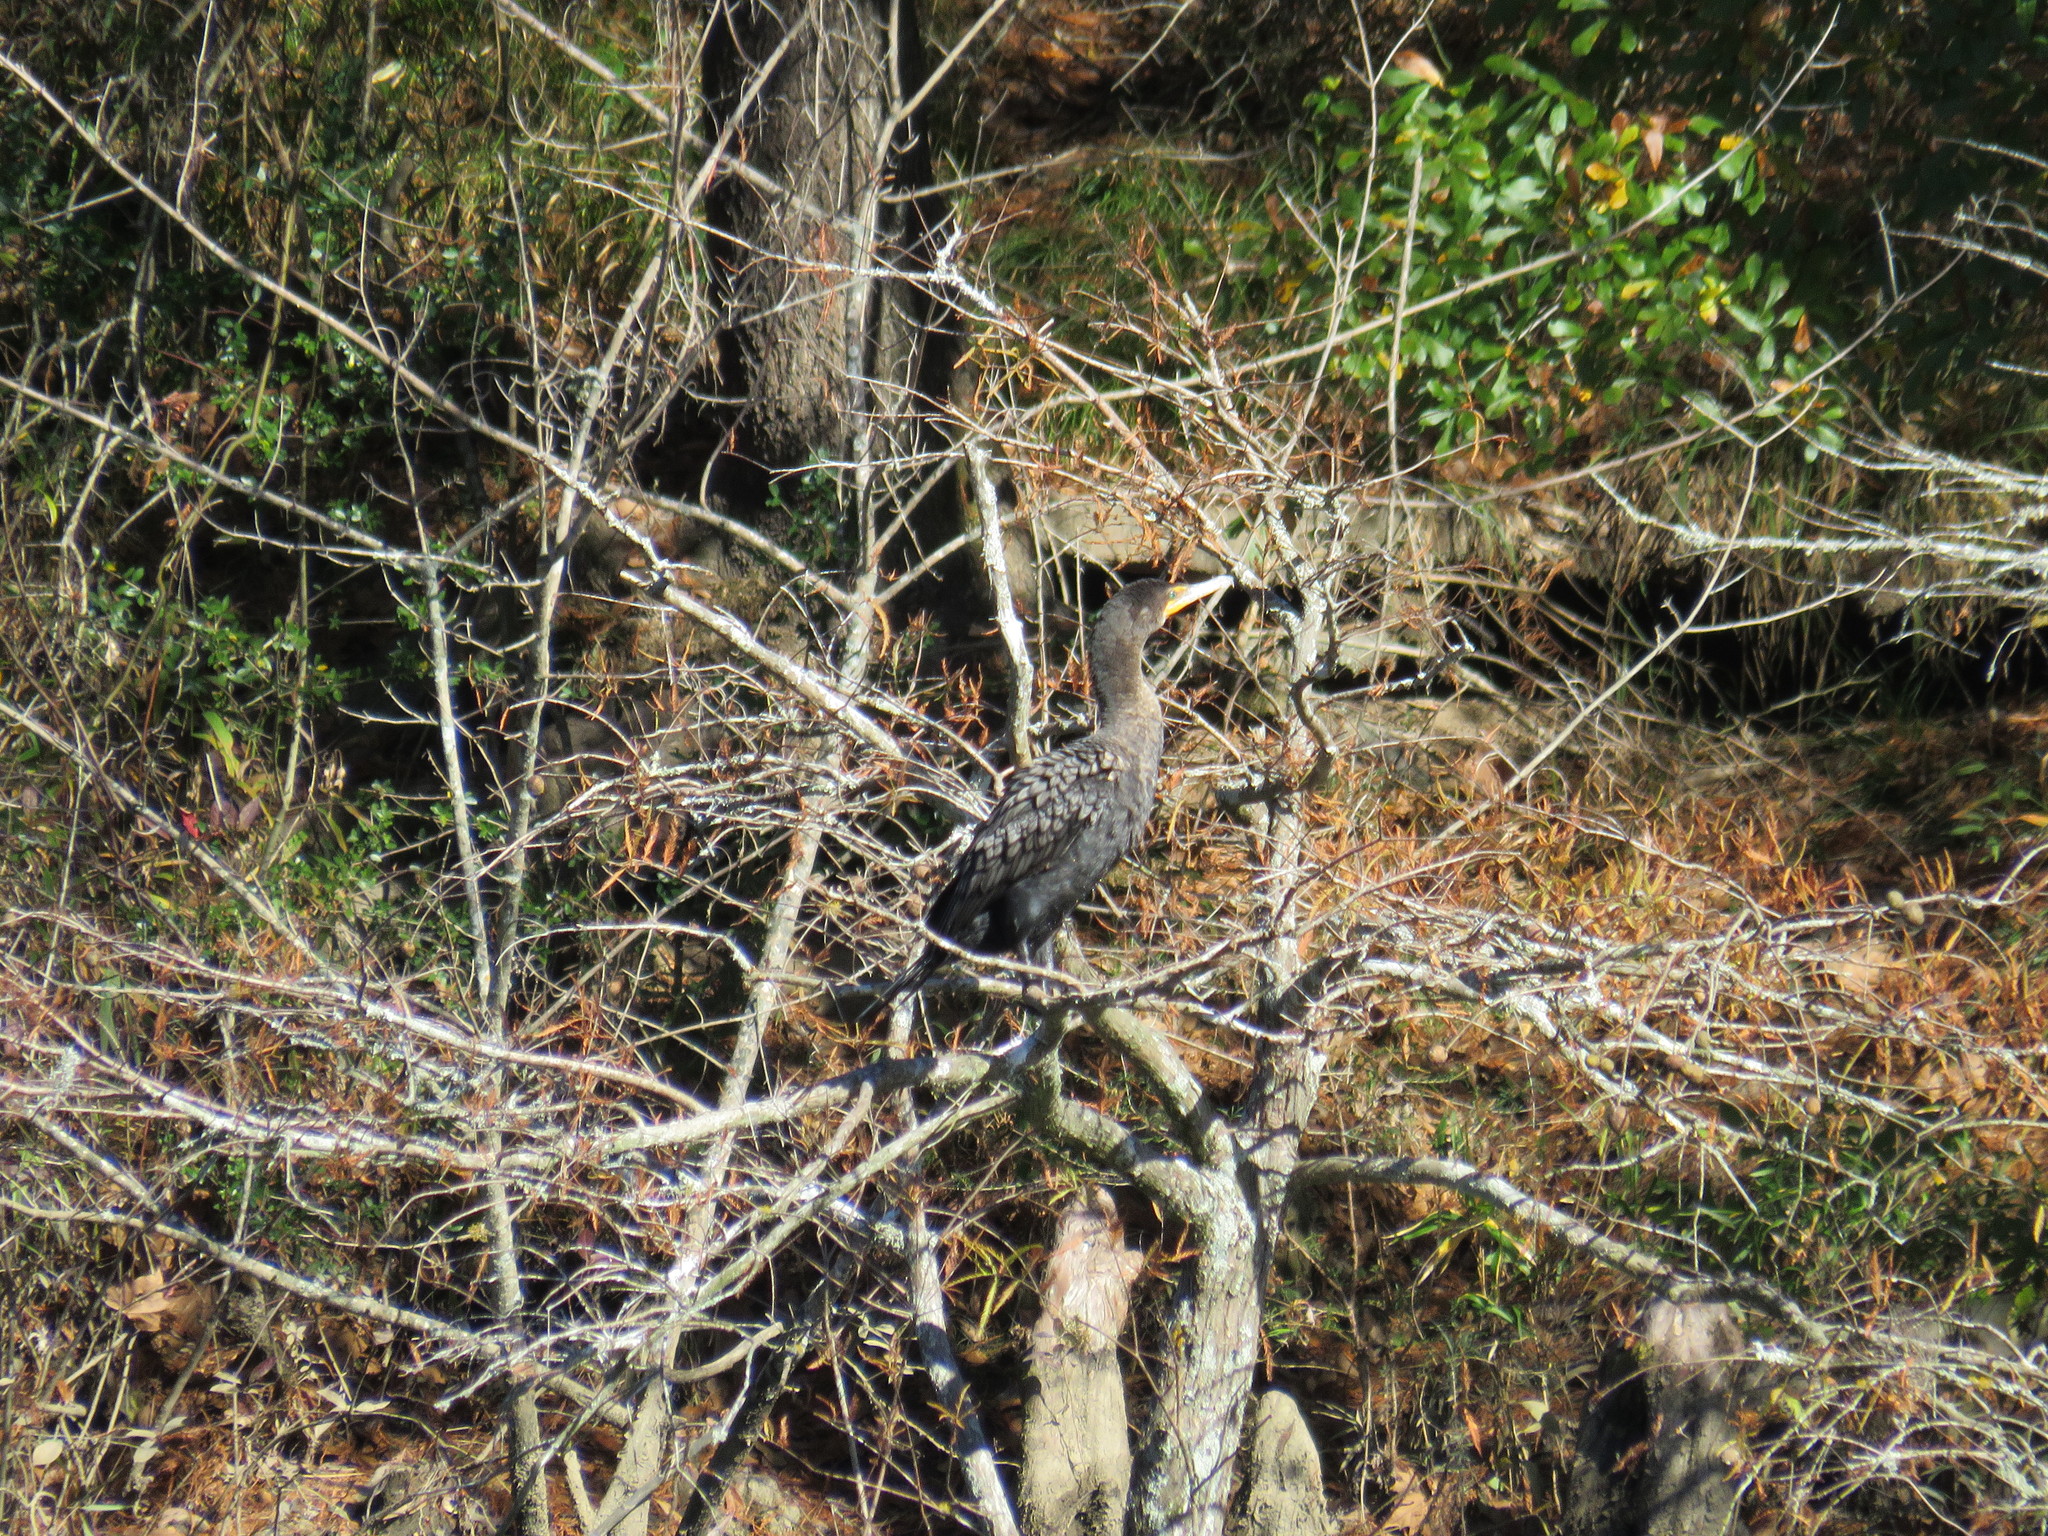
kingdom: Animalia
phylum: Chordata
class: Aves
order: Suliformes
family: Phalacrocoracidae
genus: Phalacrocorax
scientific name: Phalacrocorax auritus
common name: Double-crested cormorant
